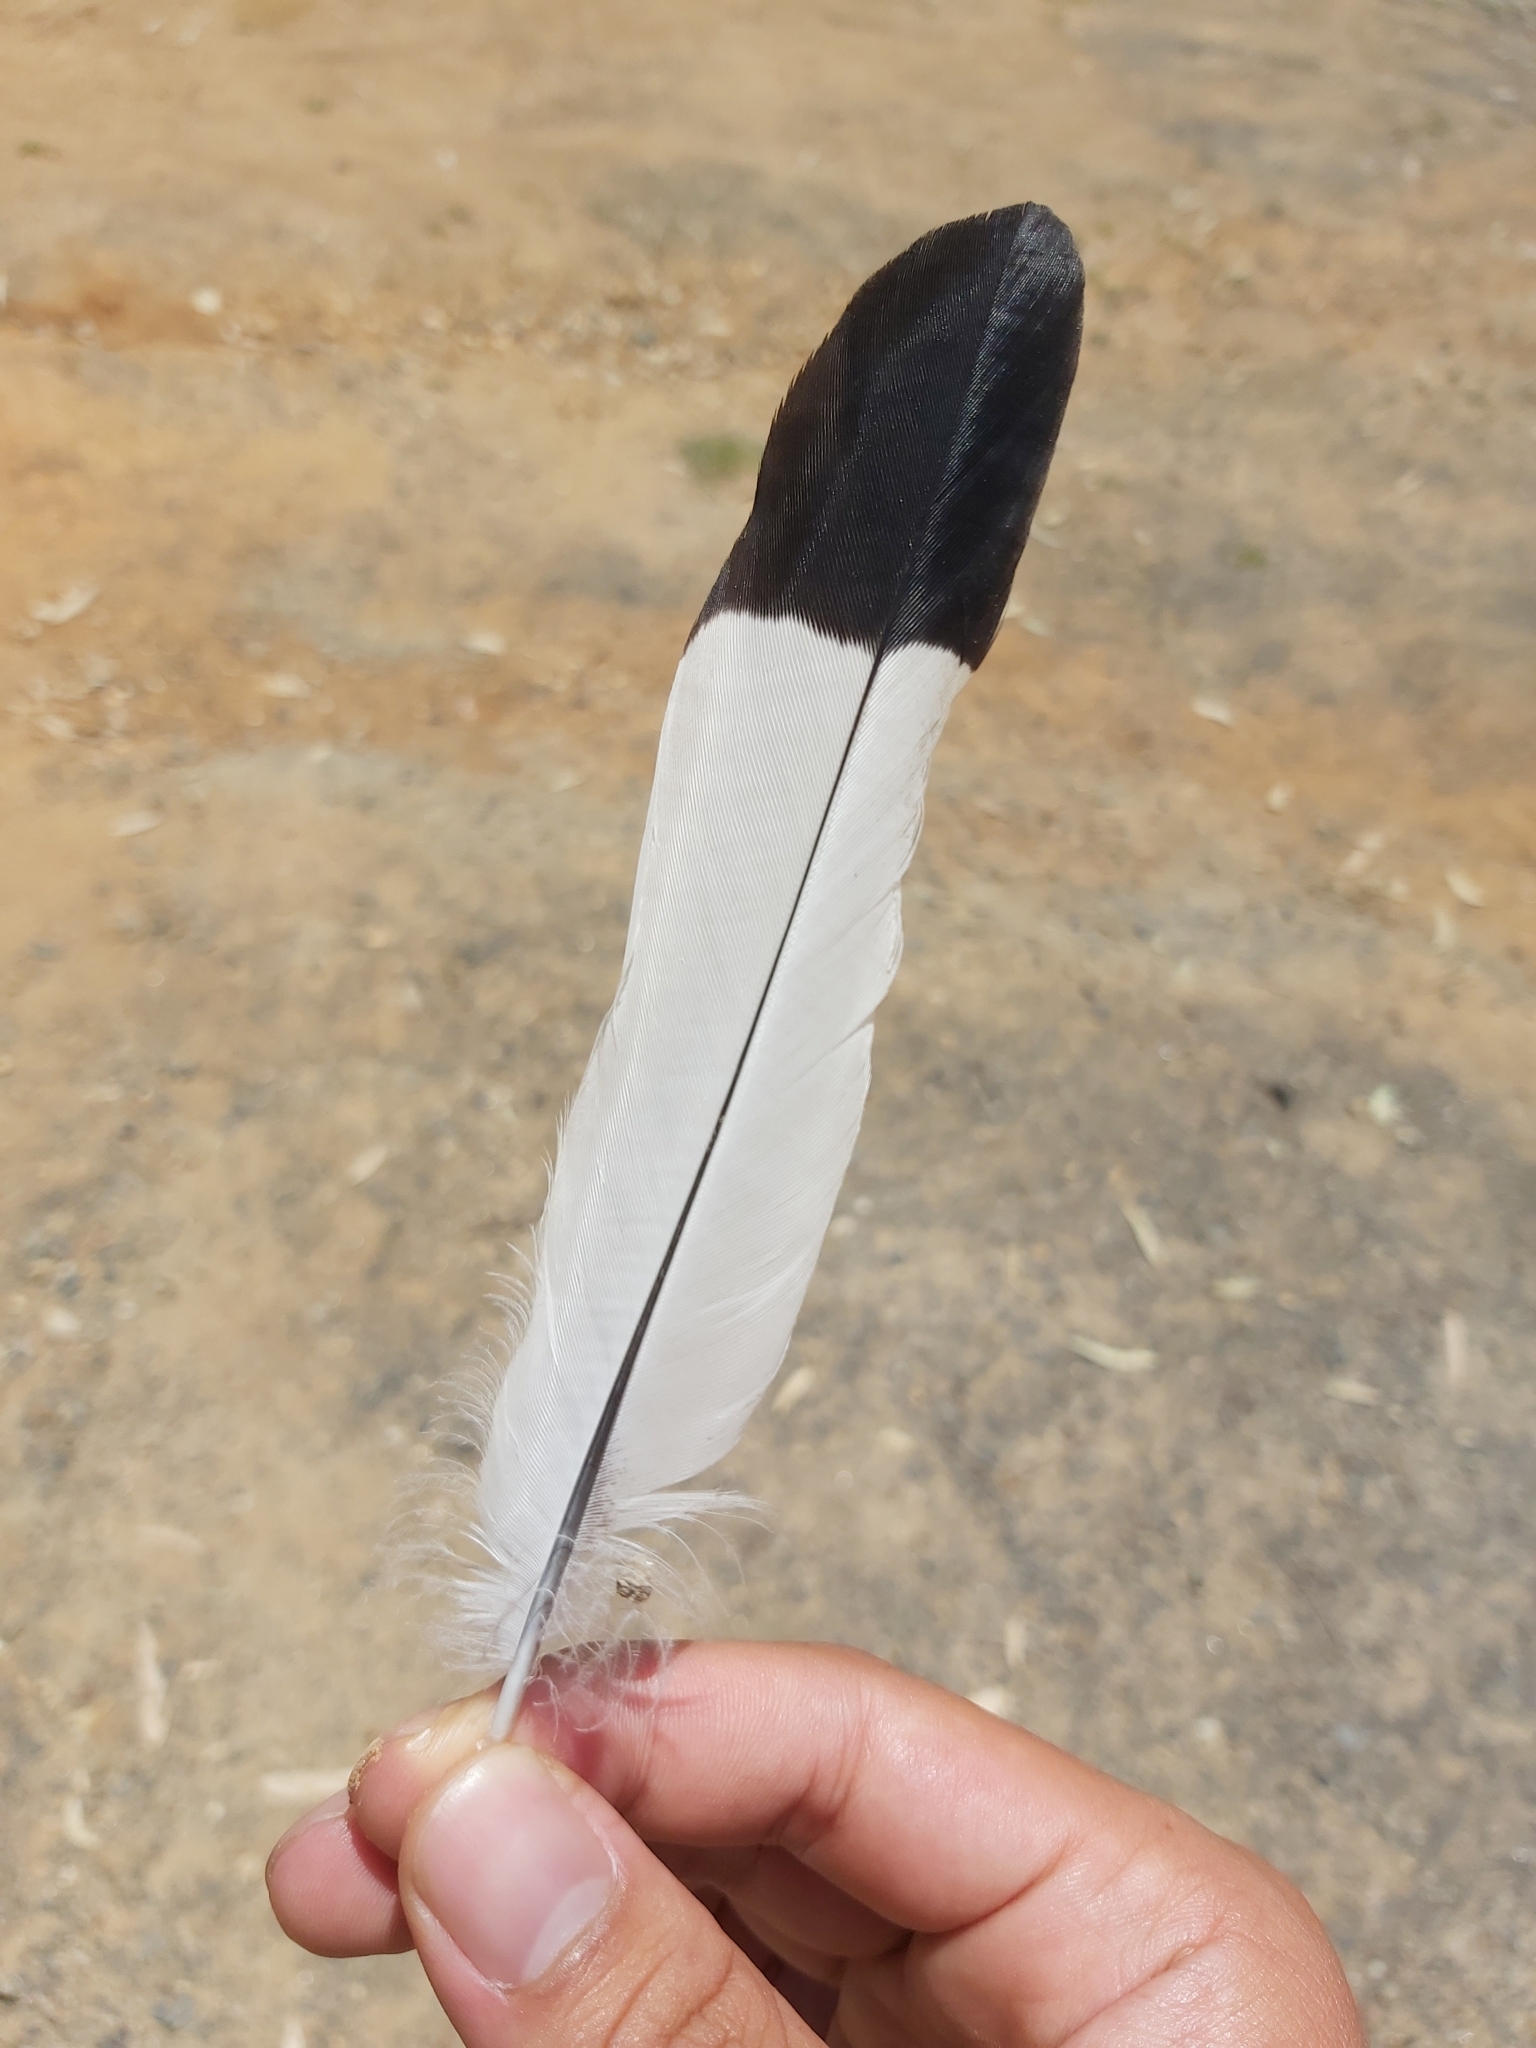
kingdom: Animalia
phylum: Chordata
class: Aves
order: Passeriformes
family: Cracticidae
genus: Gymnorhina
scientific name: Gymnorhina tibicen
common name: Australian magpie
